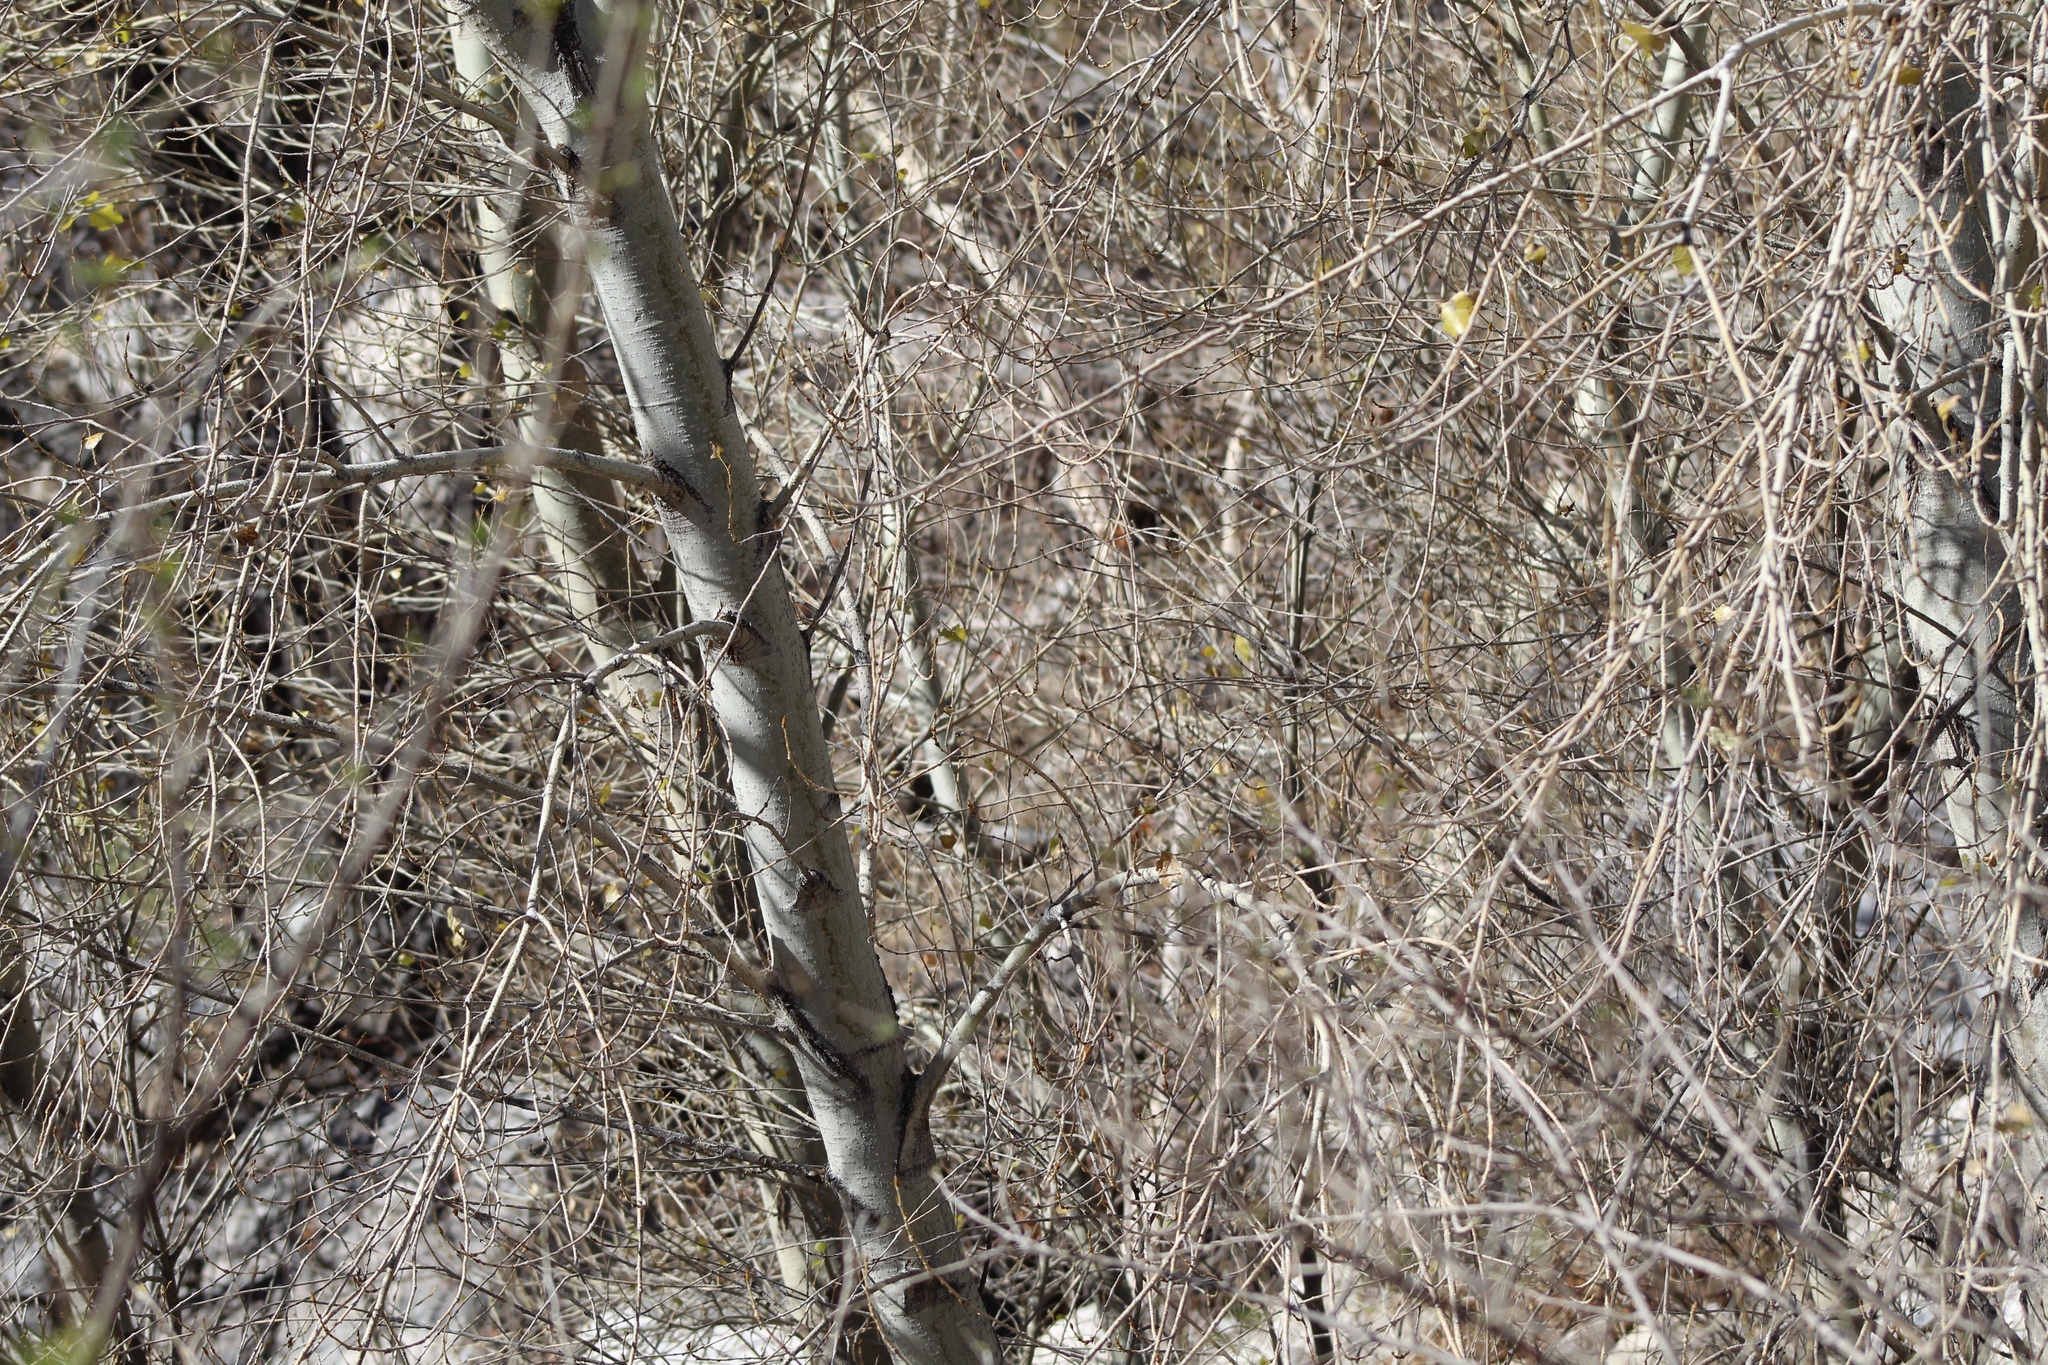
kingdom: Plantae
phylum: Tracheophyta
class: Magnoliopsida
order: Malpighiales
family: Salicaceae
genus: Populus
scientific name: Populus fremontii
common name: Fremont's cottonwood
